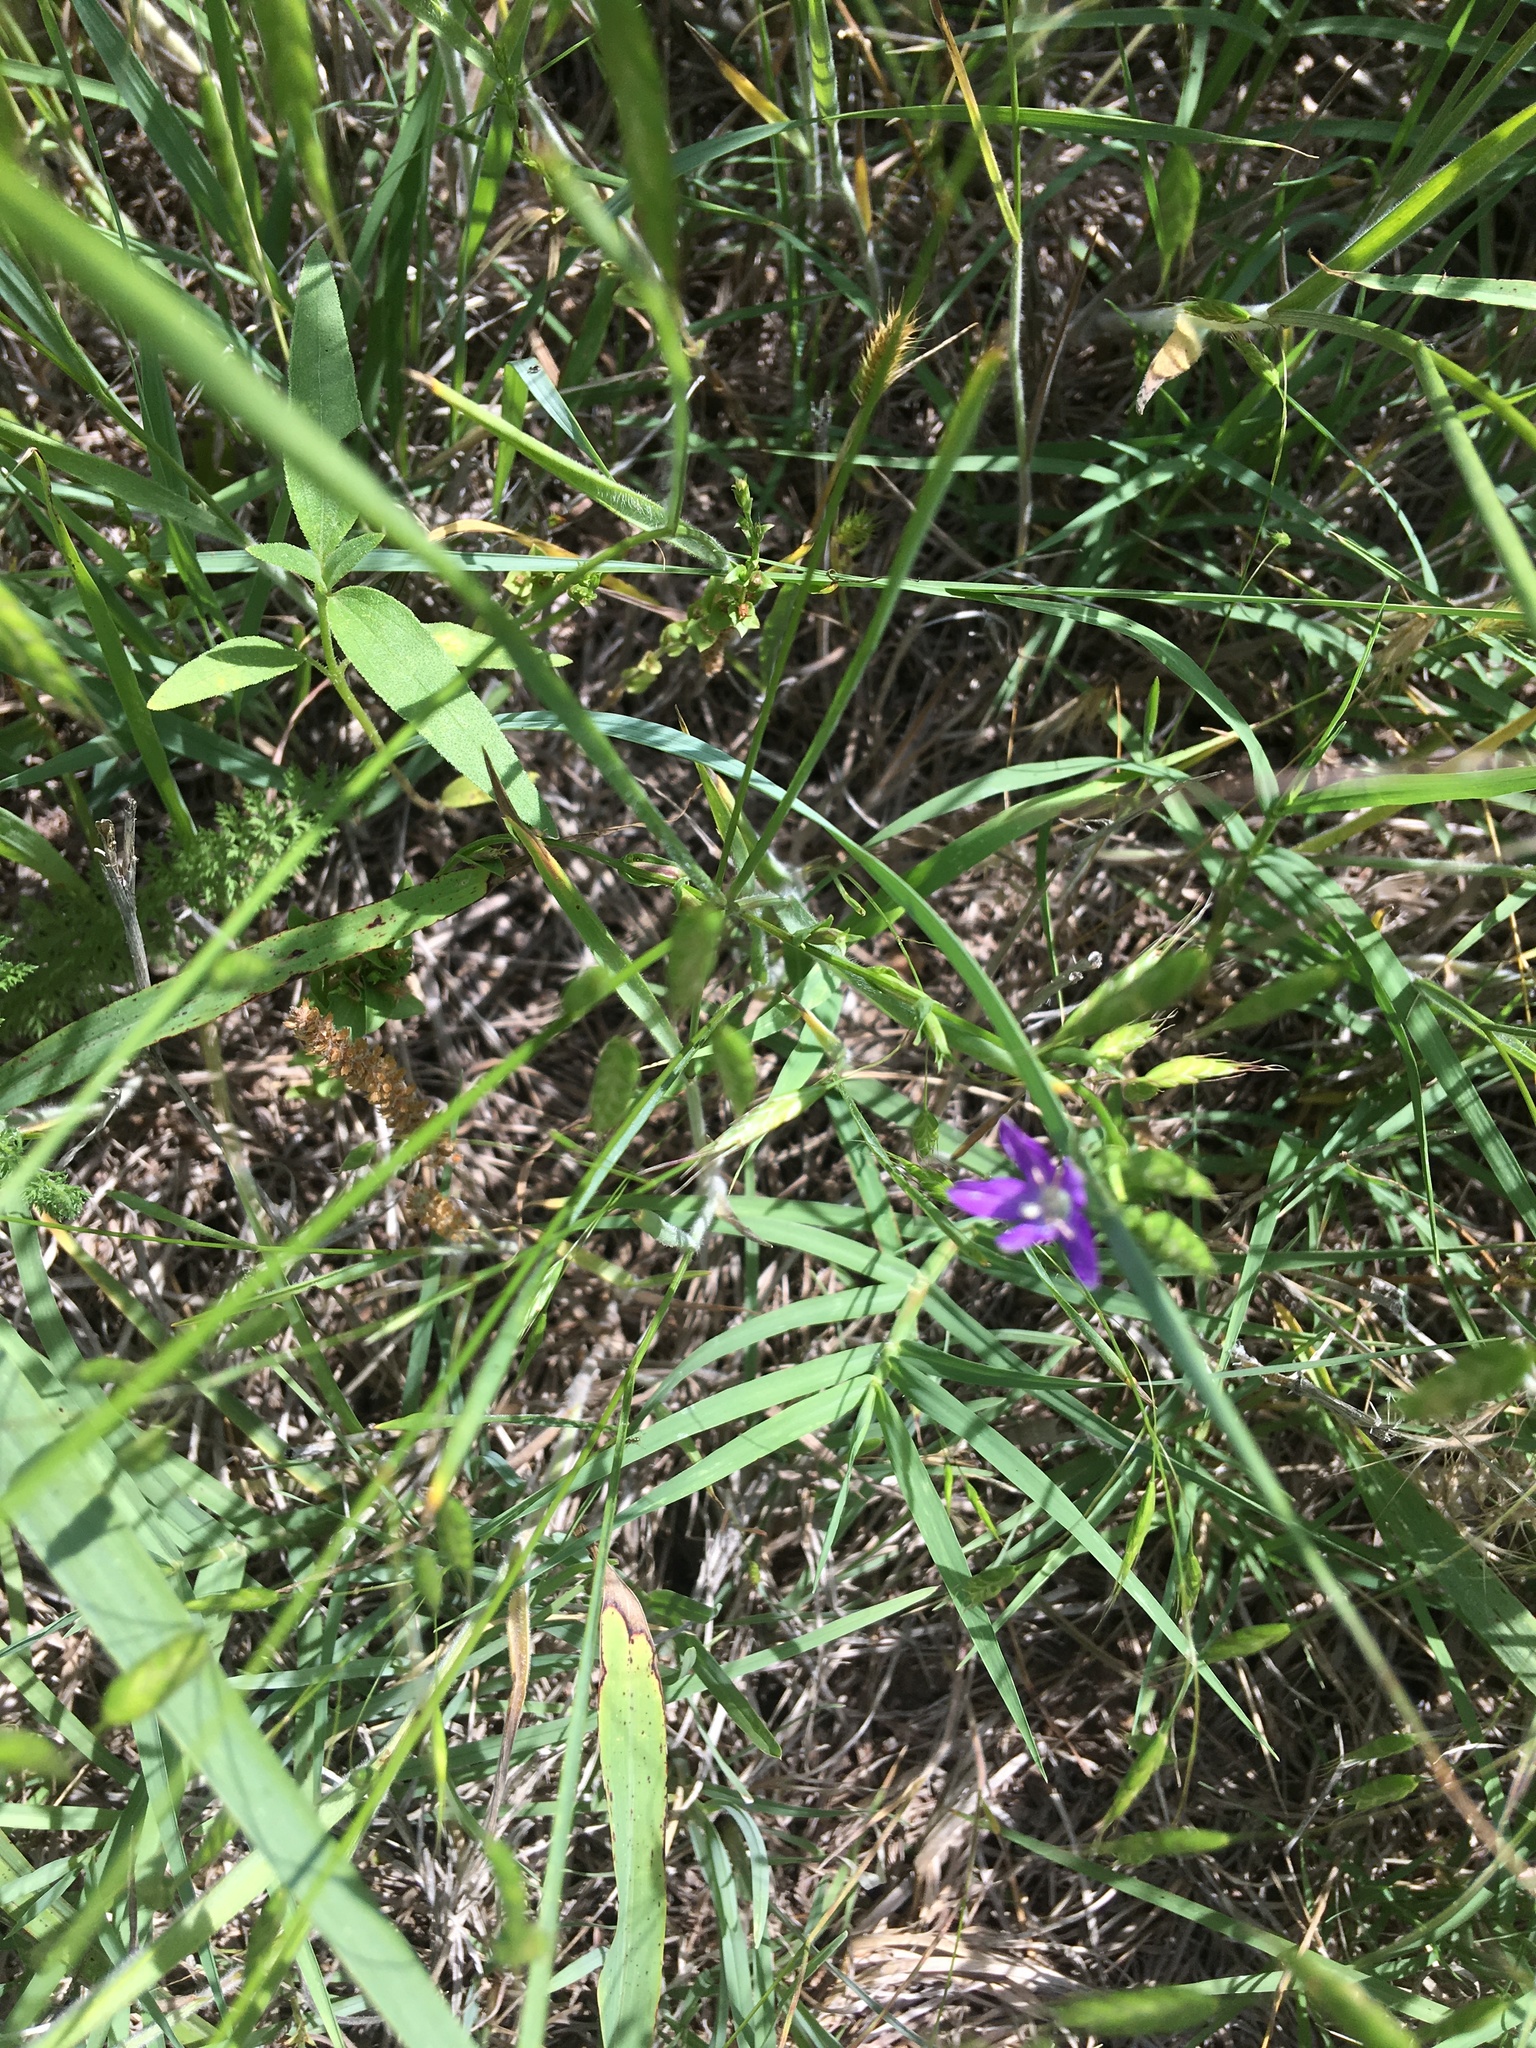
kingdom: Plantae
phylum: Tracheophyta
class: Magnoliopsida
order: Asterales
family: Campanulaceae
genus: Triodanis
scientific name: Triodanis biflora
